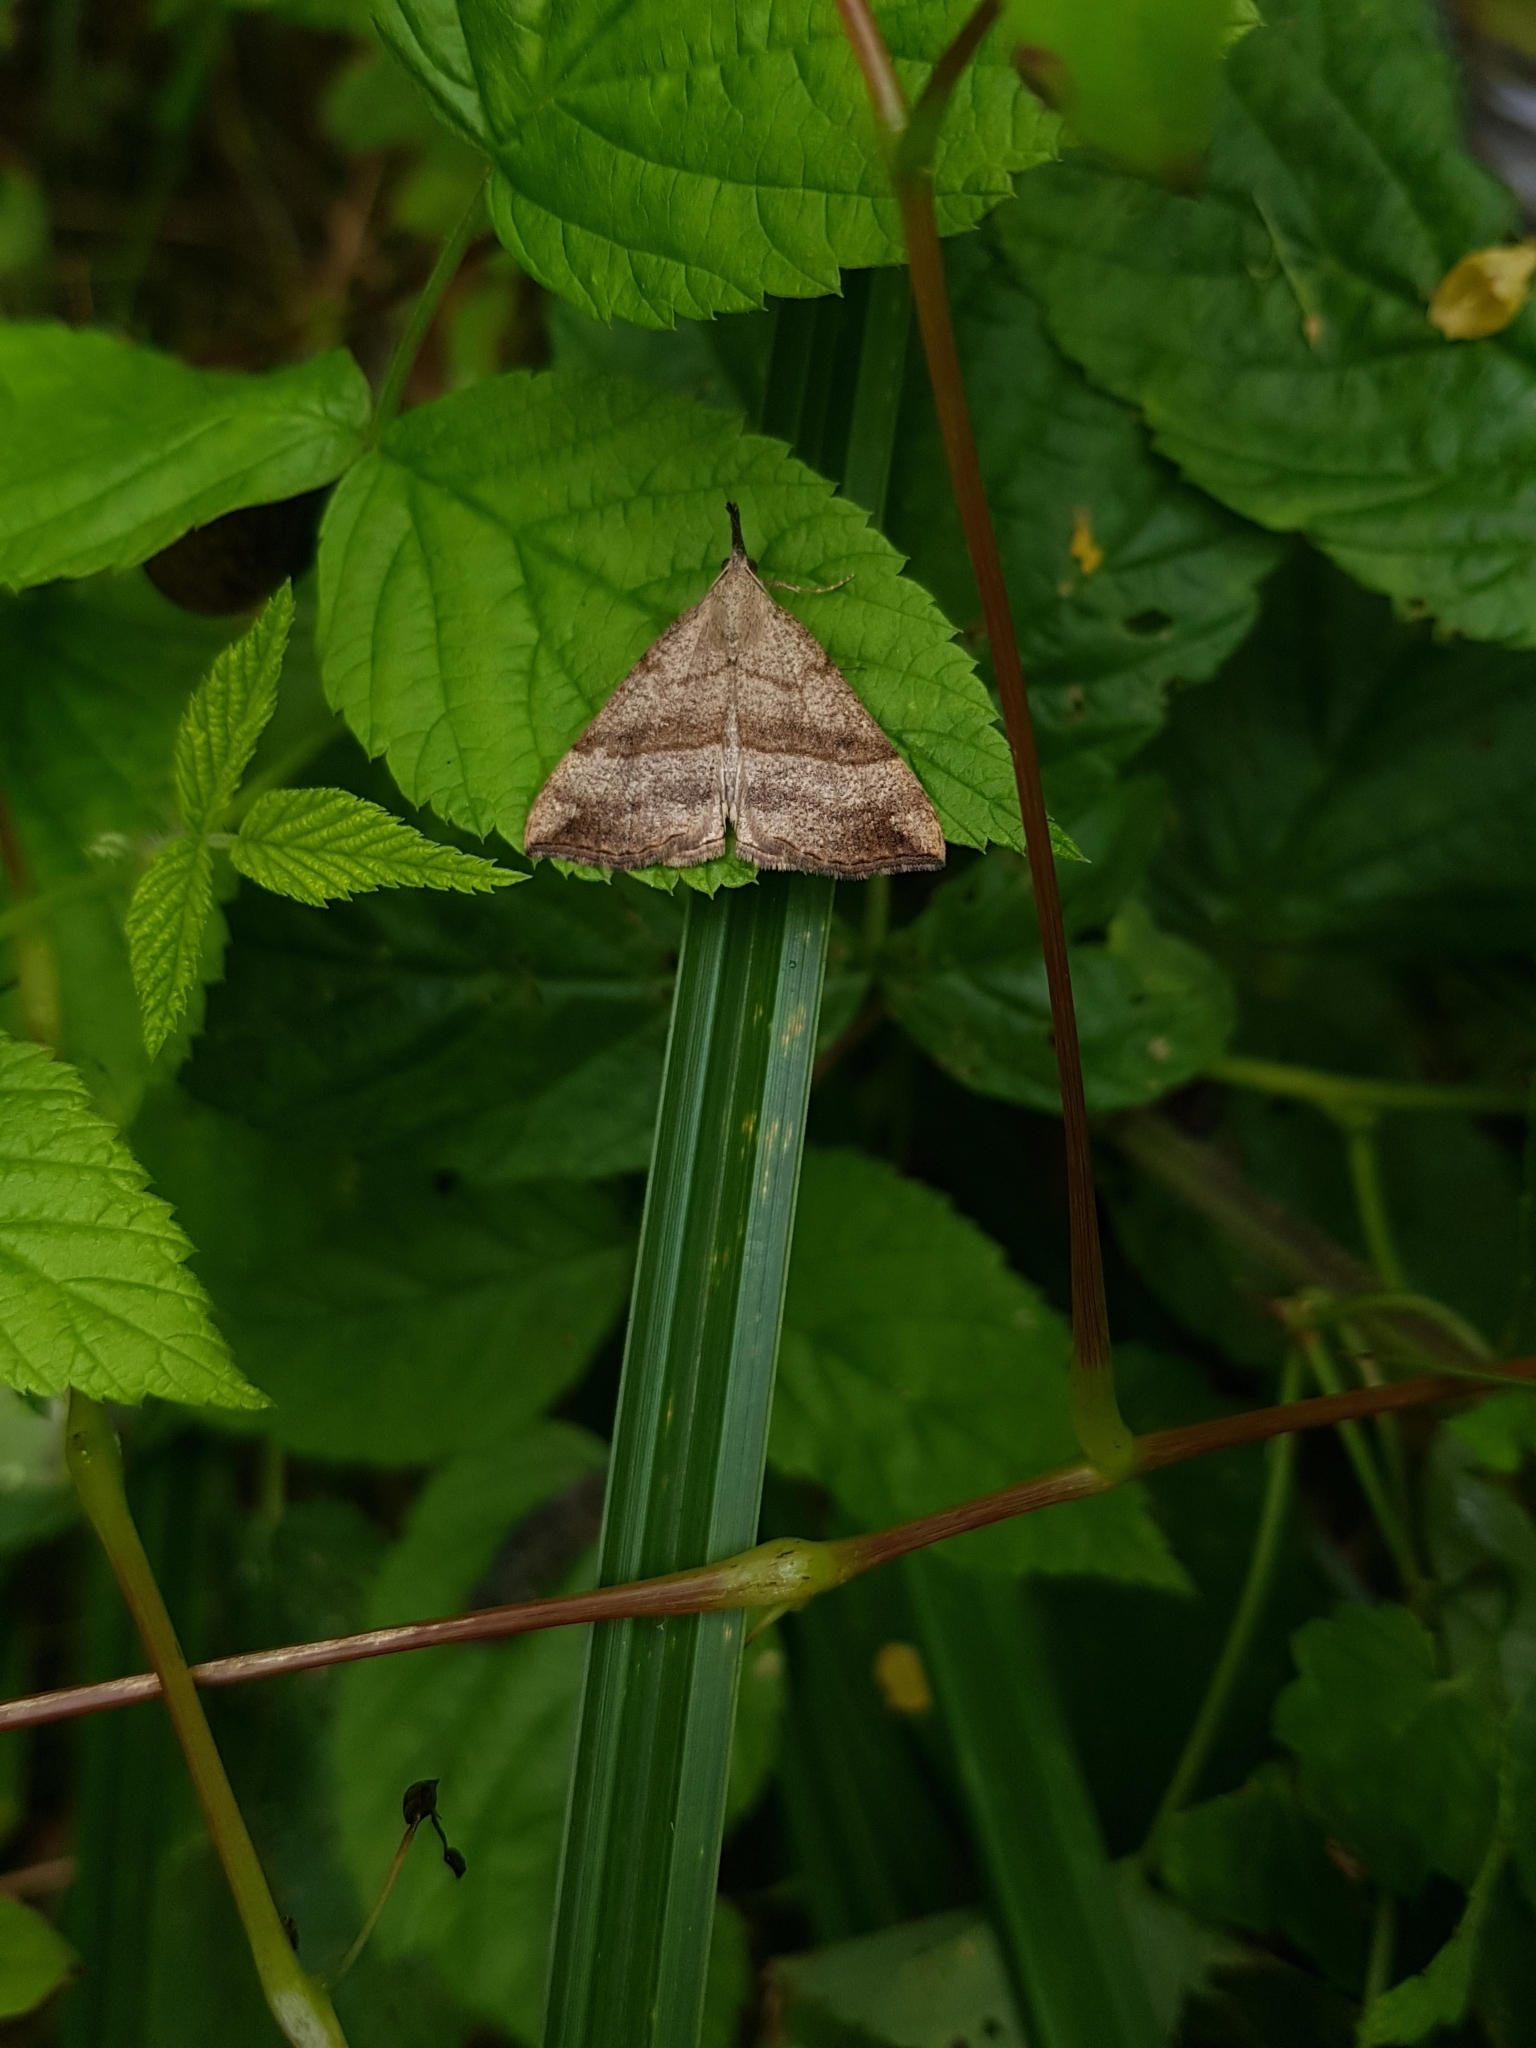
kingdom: Animalia
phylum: Arthropoda
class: Insecta
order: Lepidoptera
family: Erebidae
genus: Hypena
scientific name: Hypena proboscidalis
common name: Snout
